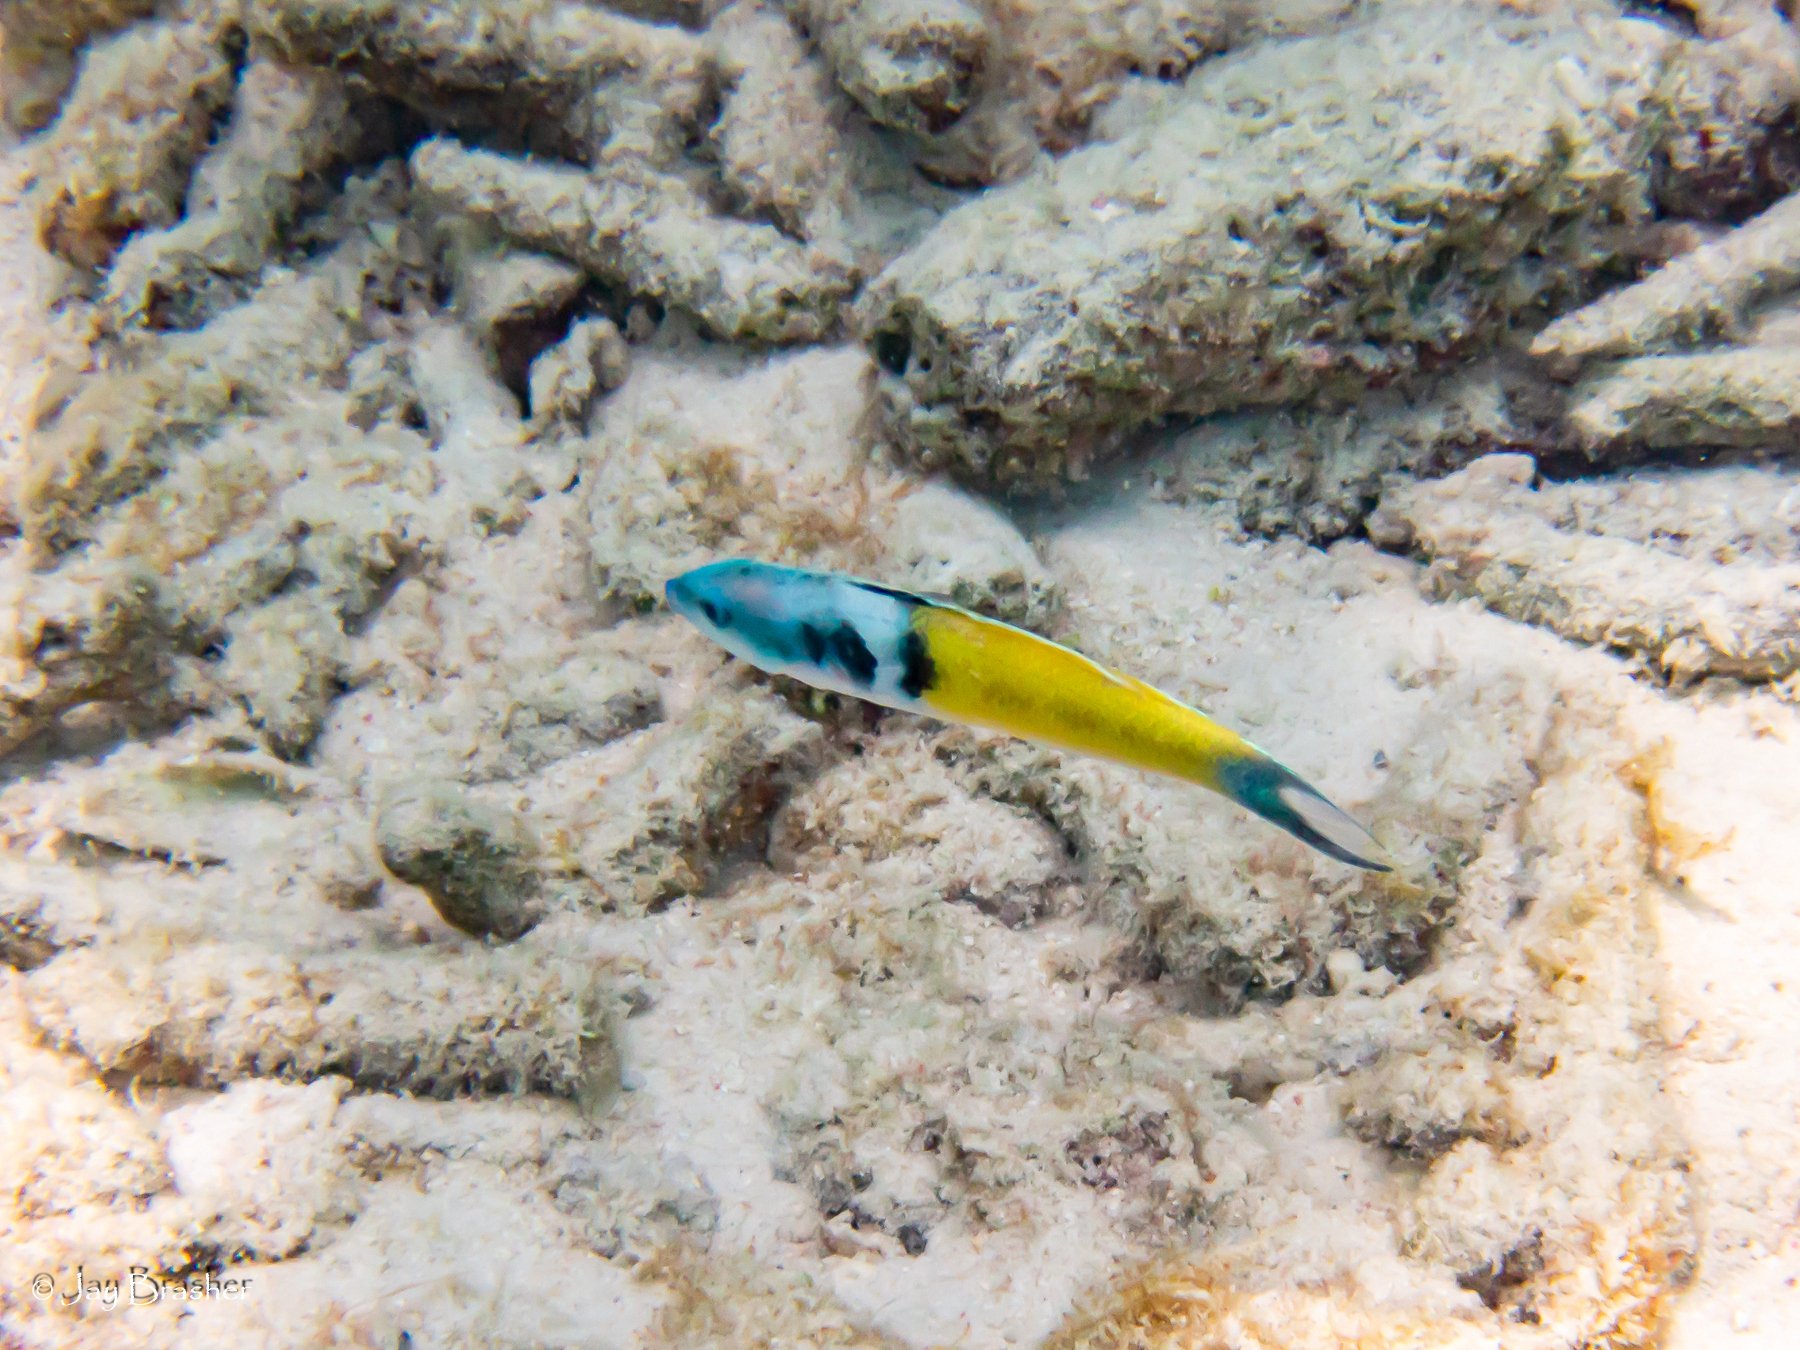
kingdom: Animalia
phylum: Chordata
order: Perciformes
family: Labridae
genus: Thalassoma
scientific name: Thalassoma bifasciatum
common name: Bluehead wrasse
